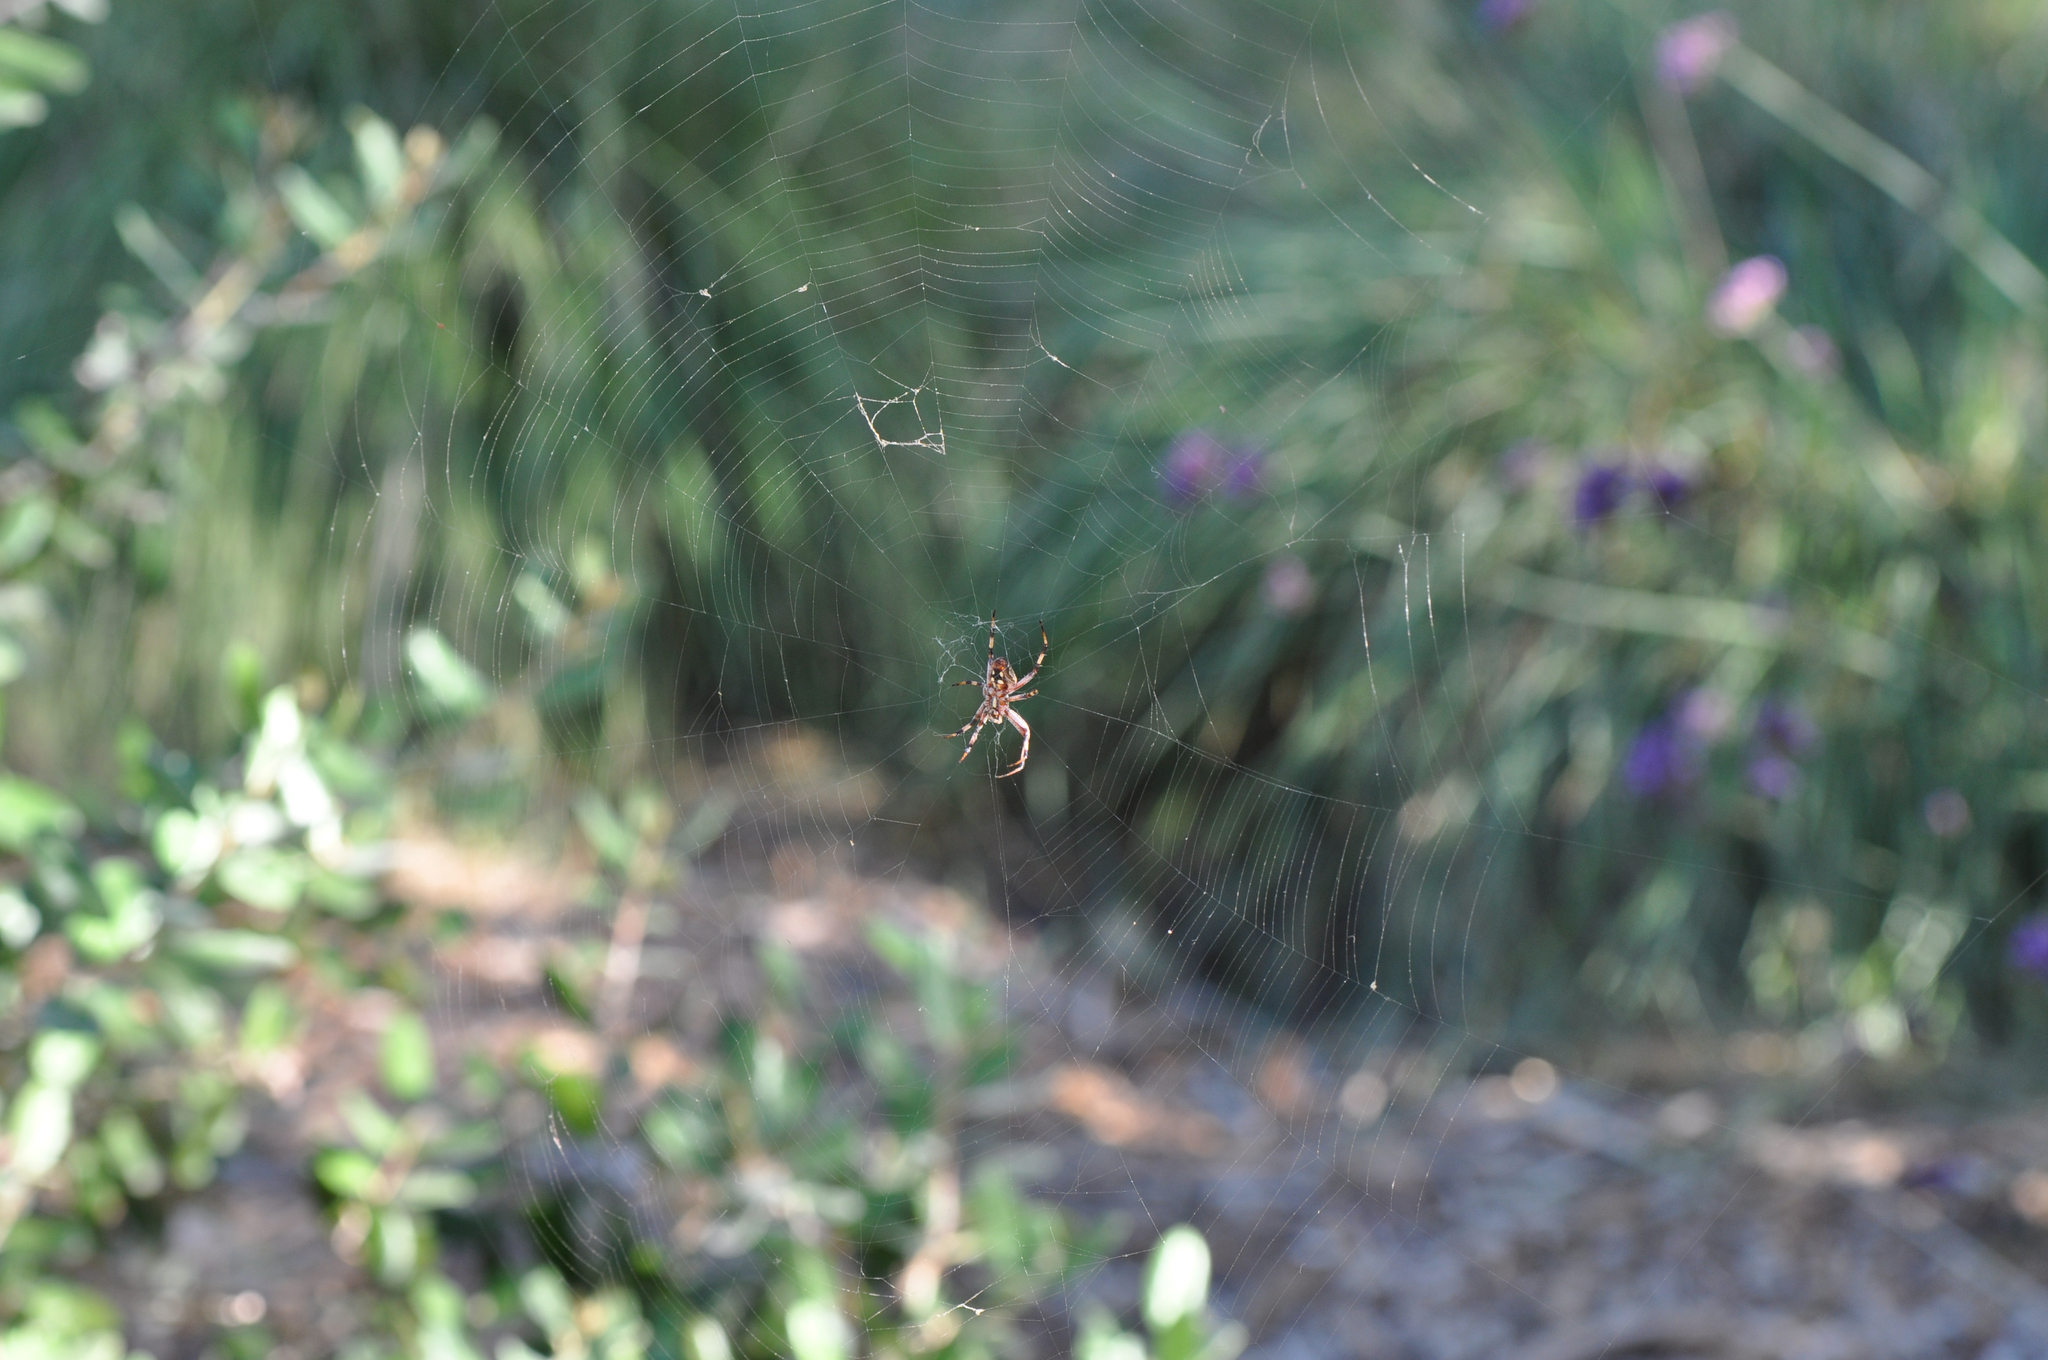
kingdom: Animalia
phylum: Arthropoda
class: Arachnida
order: Araneae
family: Araneidae
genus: Neoscona
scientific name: Neoscona oaxacensis
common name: Orb weavers
